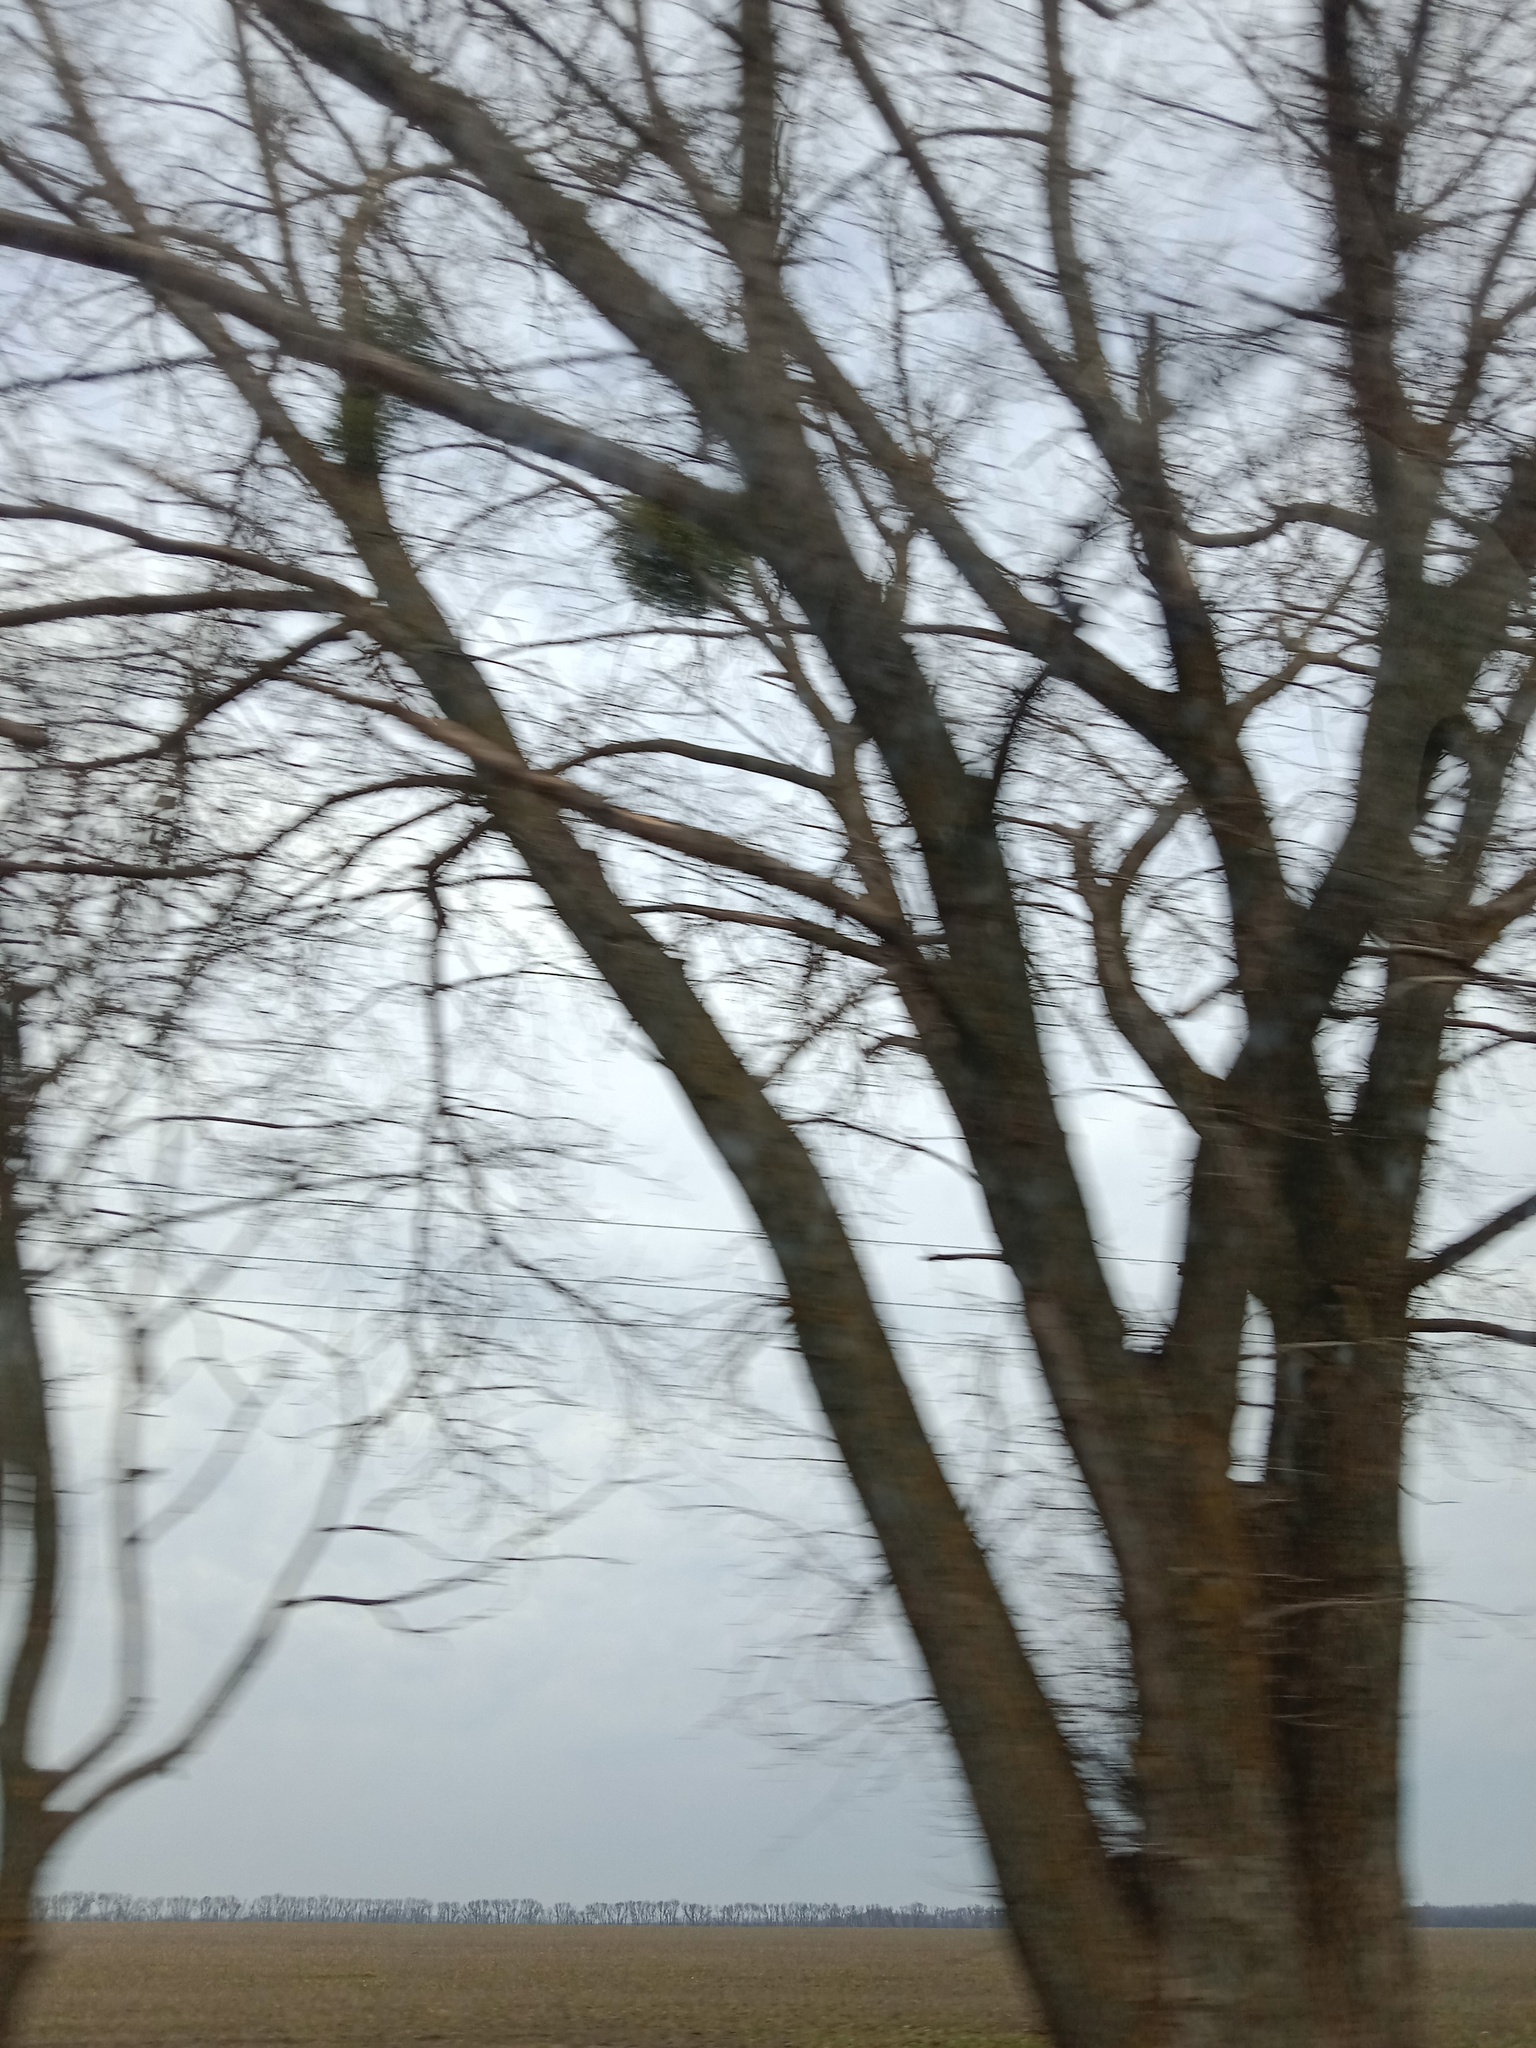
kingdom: Plantae
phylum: Tracheophyta
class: Magnoliopsida
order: Santalales
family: Viscaceae
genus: Viscum
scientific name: Viscum album
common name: Mistletoe
